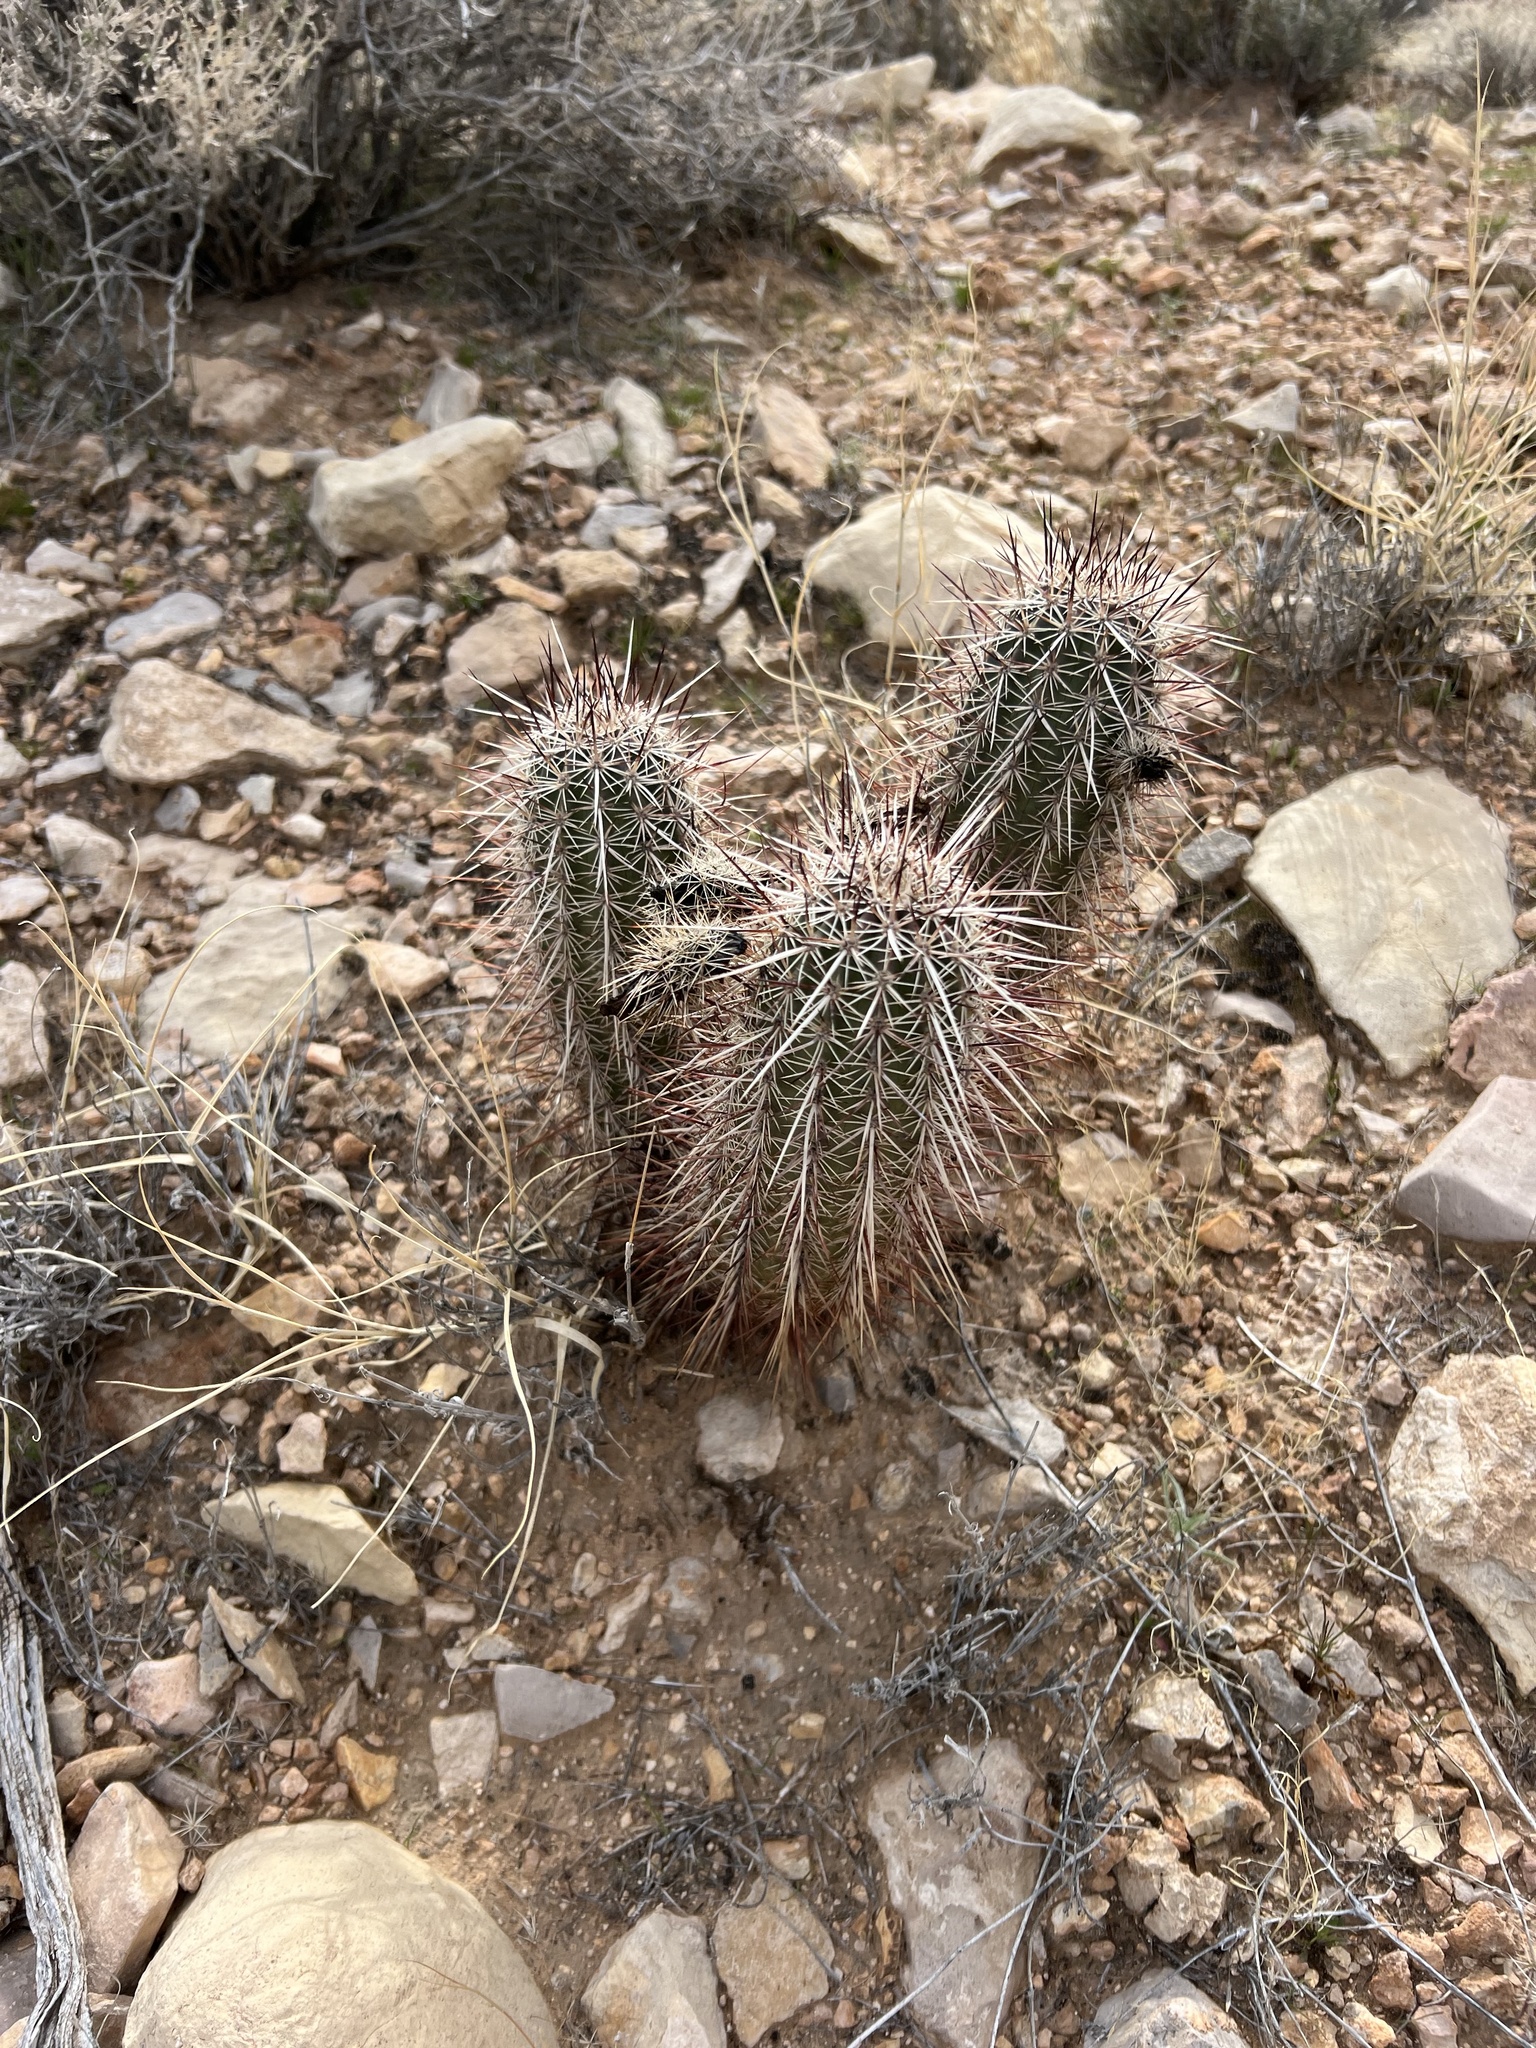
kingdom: Plantae
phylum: Tracheophyta
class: Magnoliopsida
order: Caryophyllales
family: Cactaceae
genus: Echinocereus
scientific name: Echinocereus engelmannii
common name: Engelmann's hedgehog cactus
